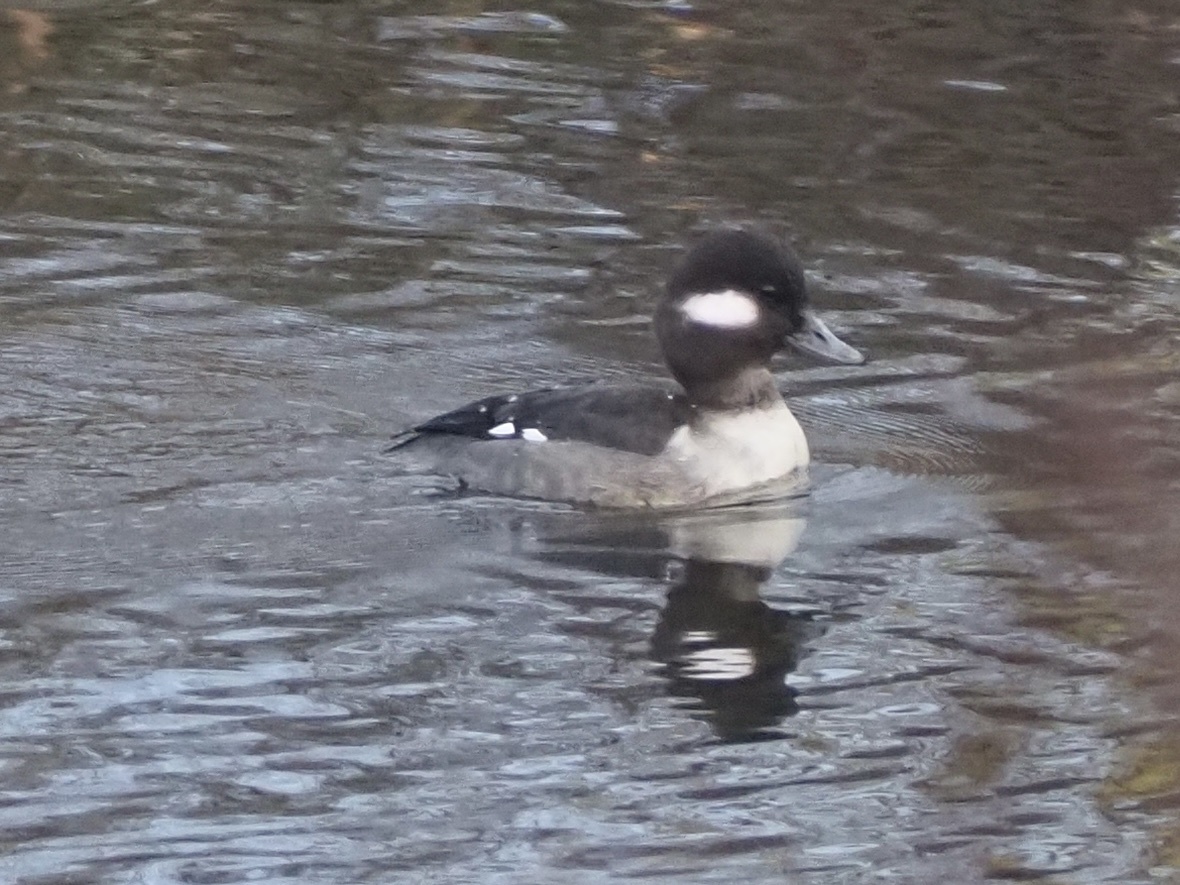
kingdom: Animalia
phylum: Chordata
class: Aves
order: Anseriformes
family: Anatidae
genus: Bucephala
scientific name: Bucephala albeola
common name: Bufflehead
